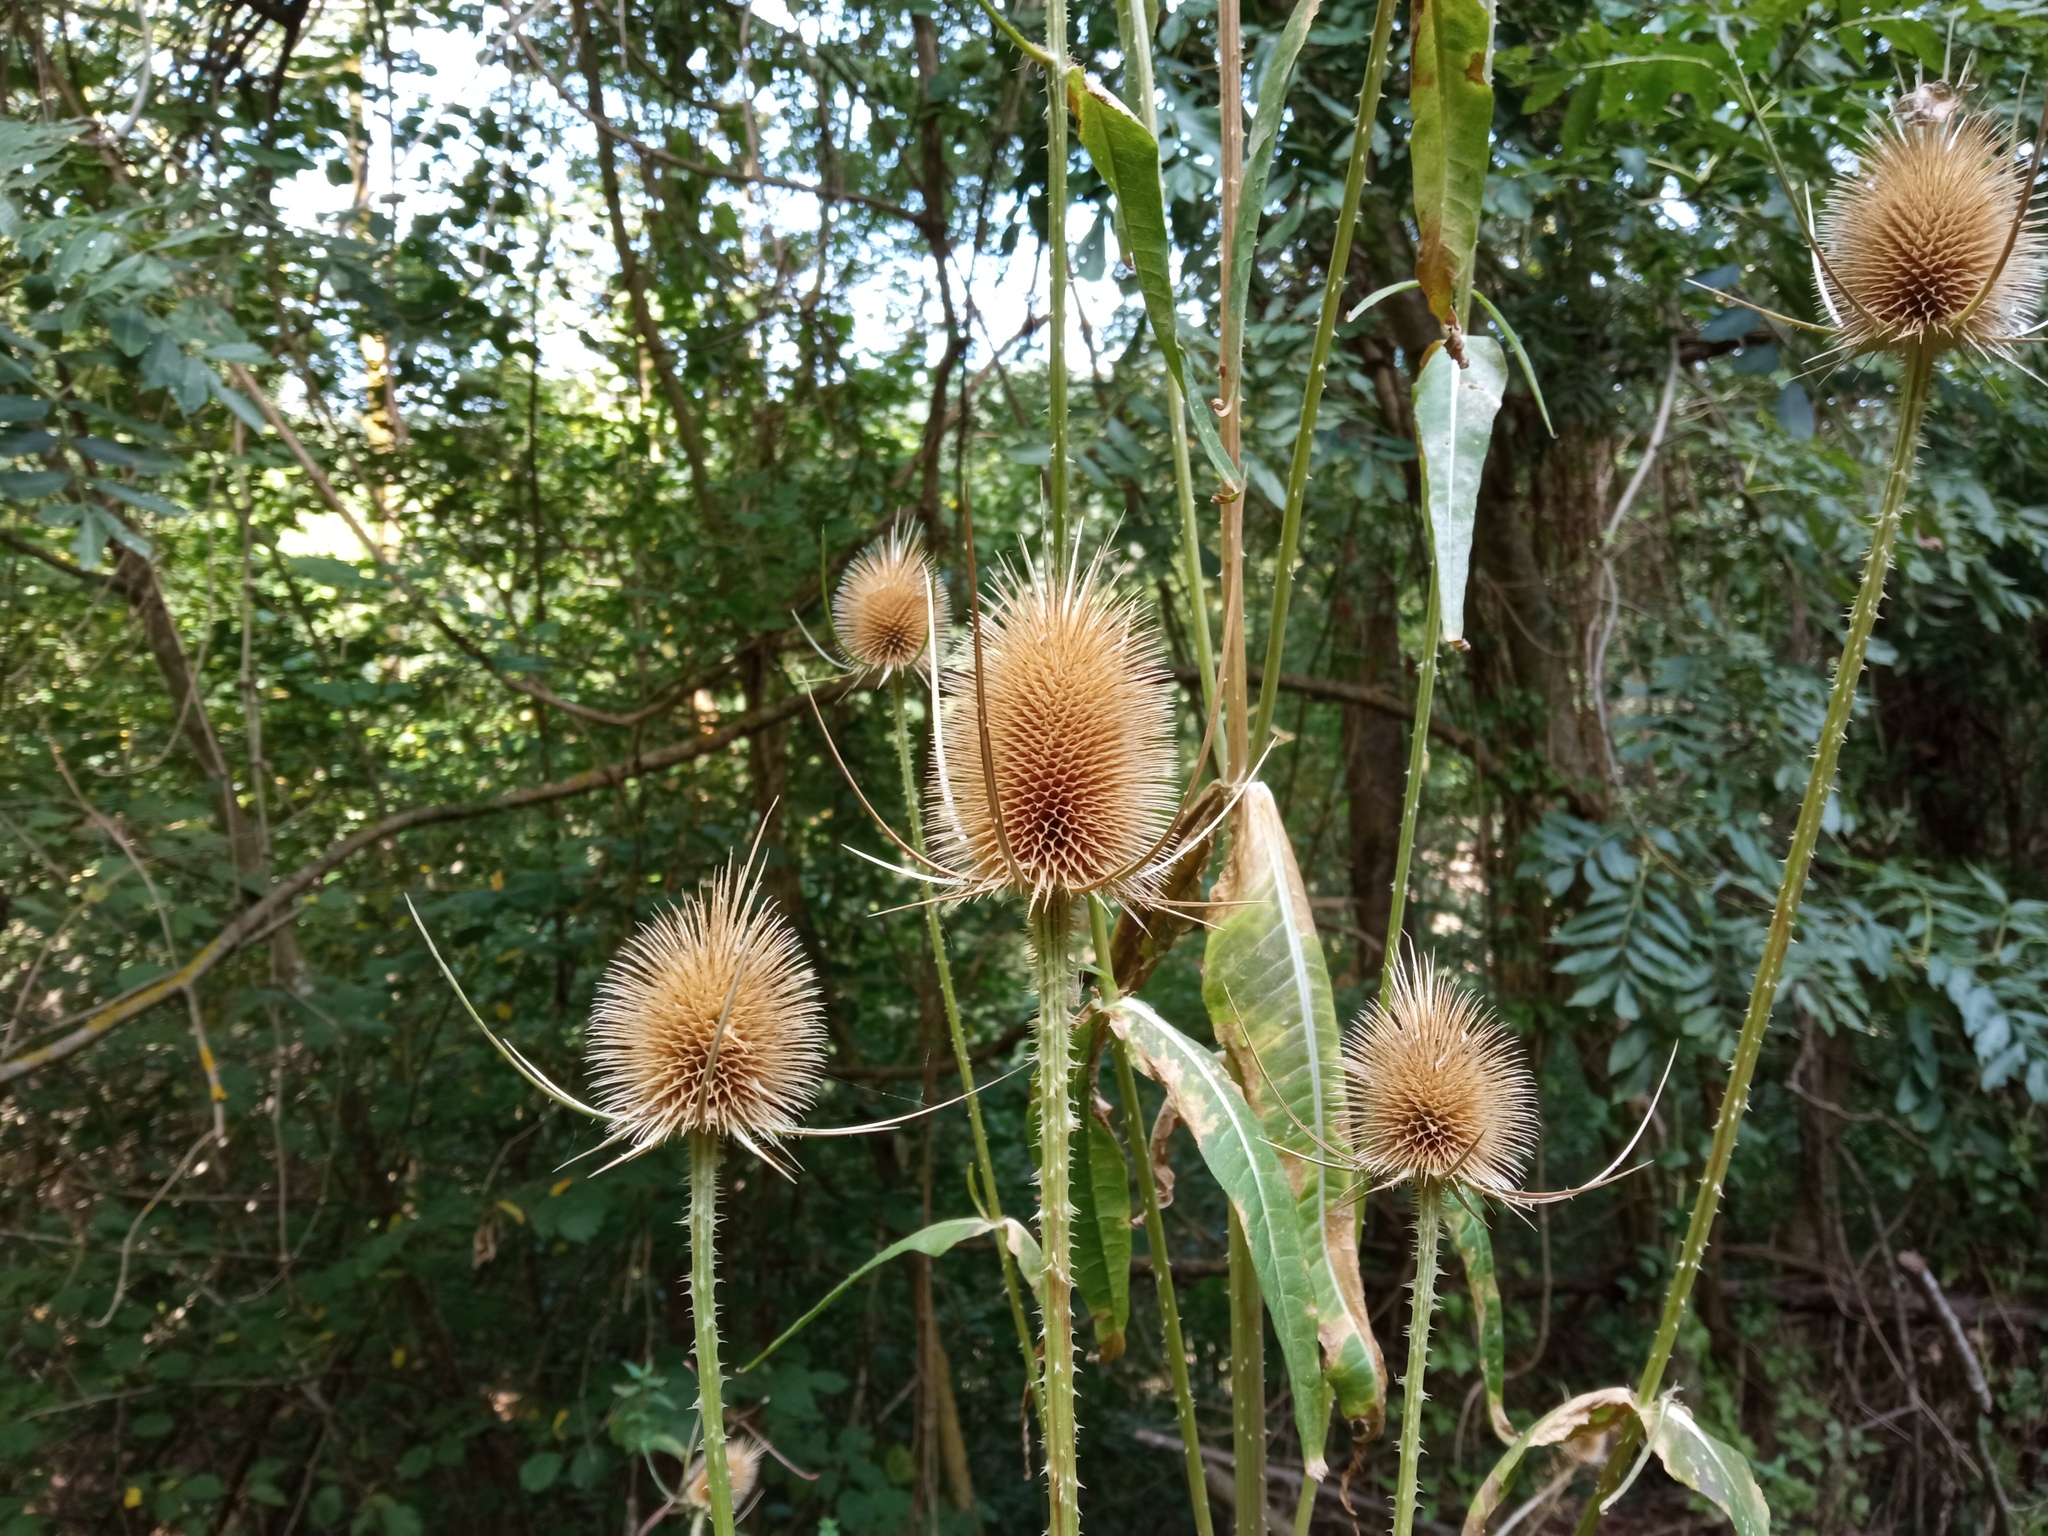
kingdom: Plantae
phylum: Tracheophyta
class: Magnoliopsida
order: Dipsacales
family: Caprifoliaceae
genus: Dipsacus
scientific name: Dipsacus fullonum
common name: Teasel
